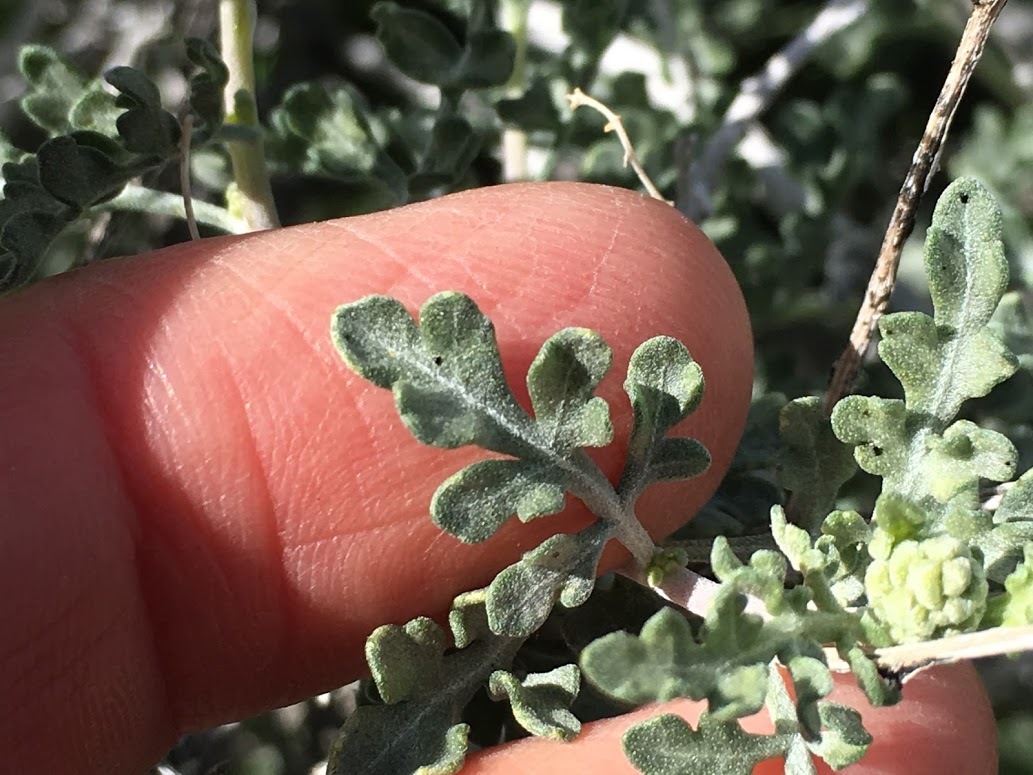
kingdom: Plantae
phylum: Tracheophyta
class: Magnoliopsida
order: Asterales
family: Asteraceae
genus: Ambrosia
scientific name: Ambrosia dumosa
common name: Bur-sage
